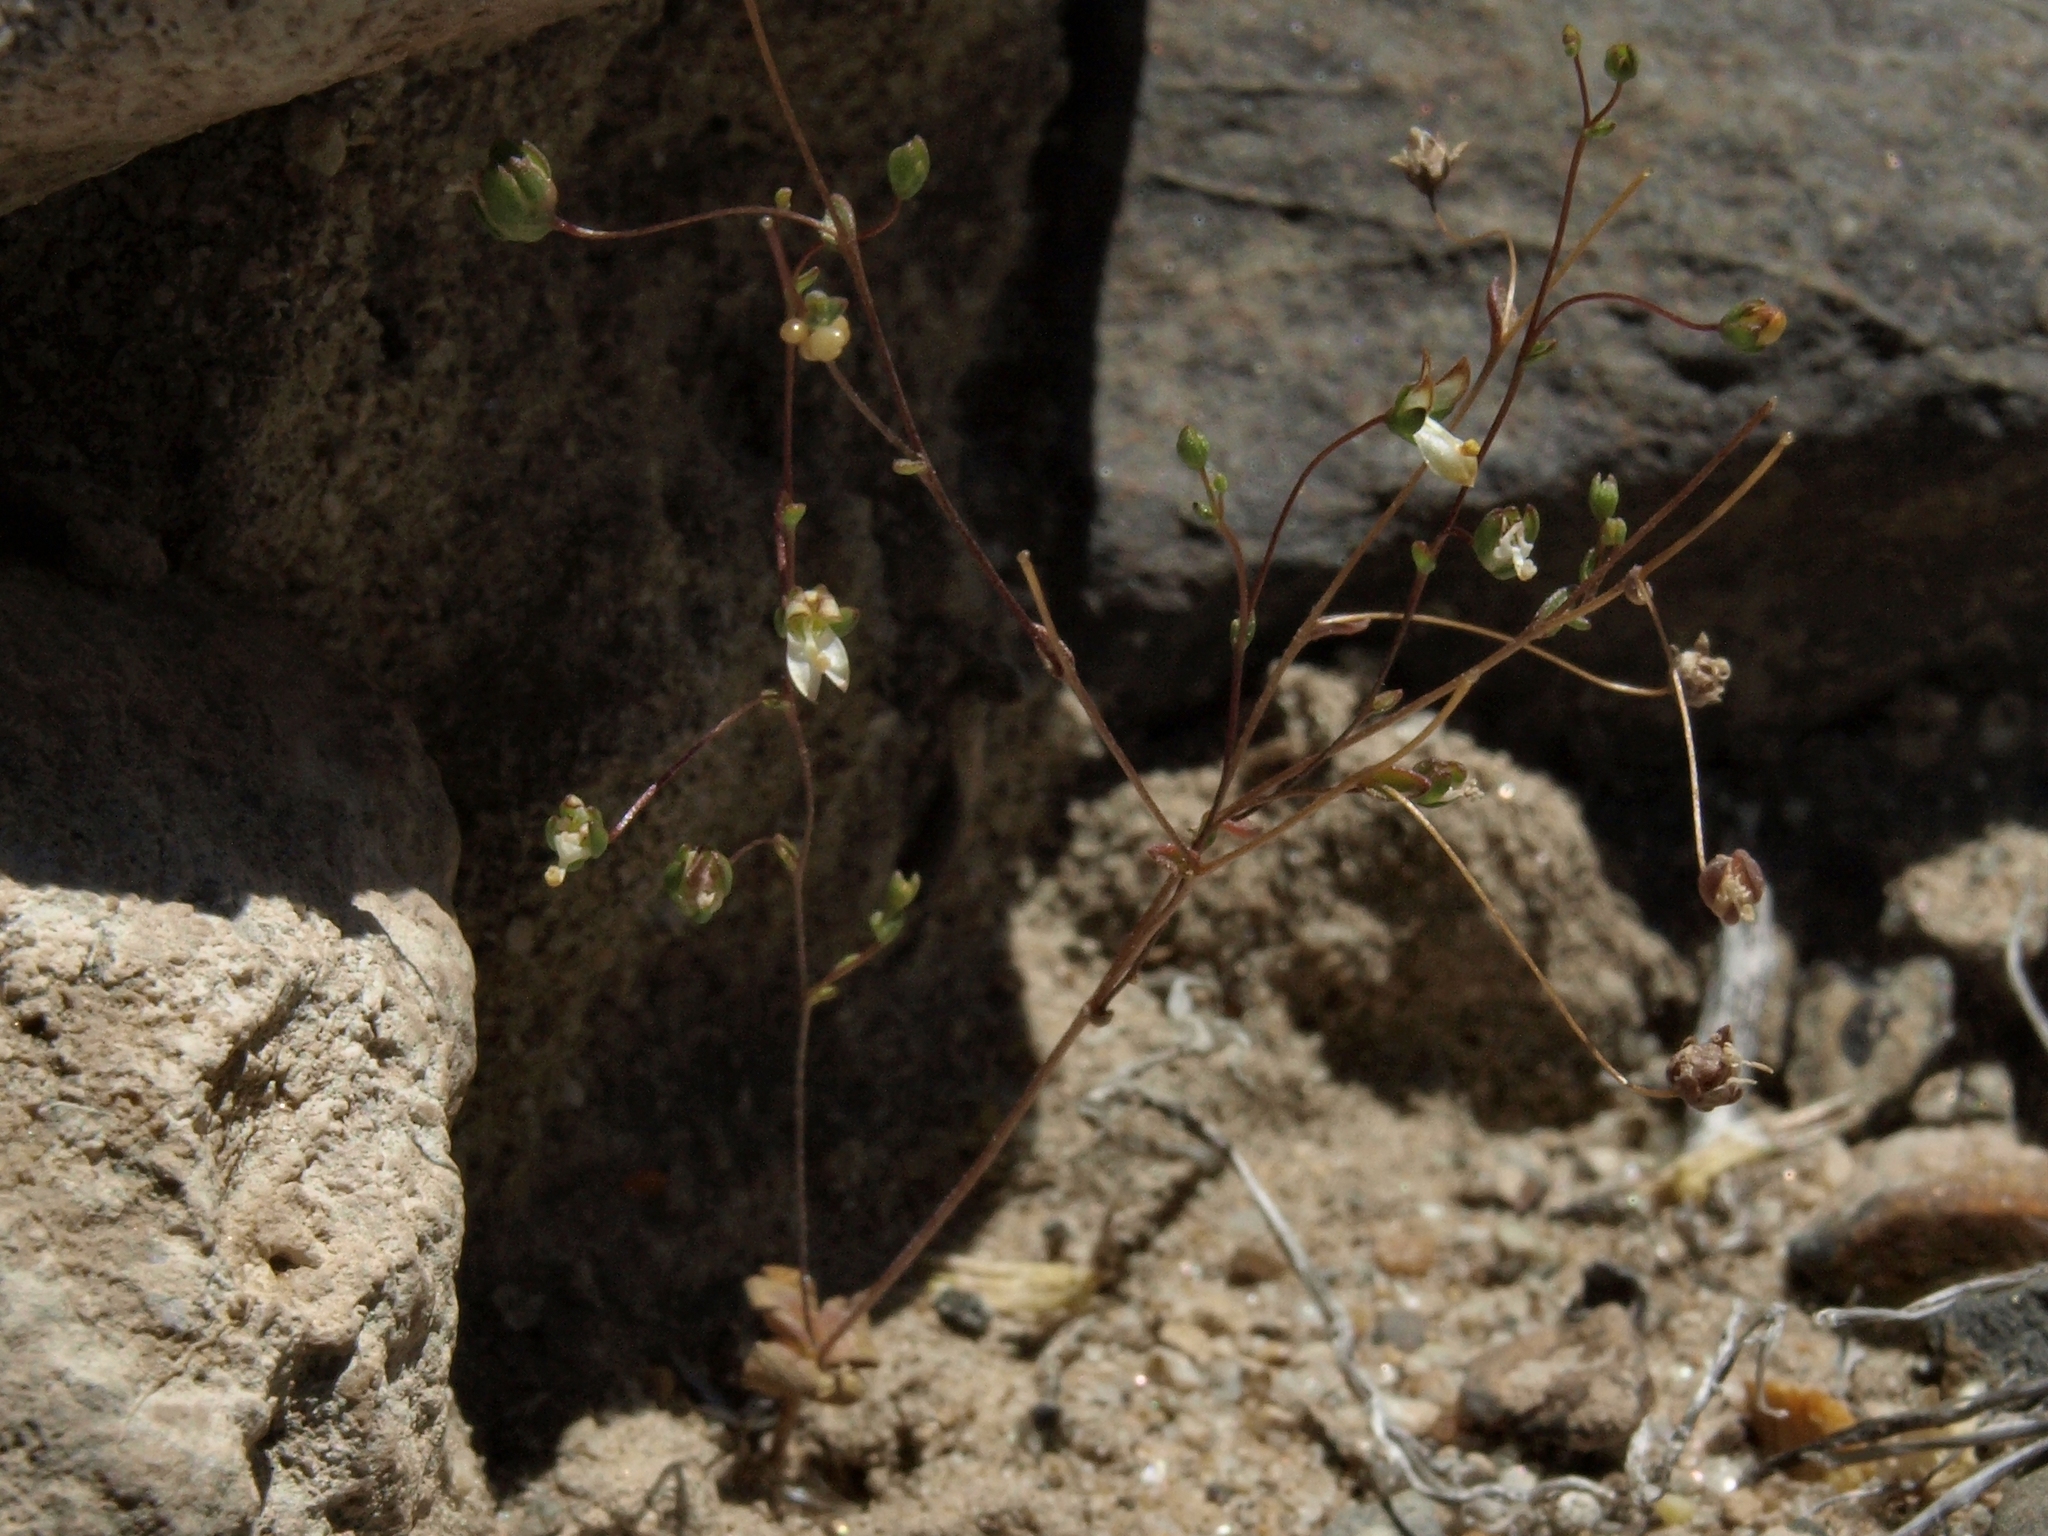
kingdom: Plantae
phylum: Tracheophyta
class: Magnoliopsida
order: Asterales
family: Campanulaceae
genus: Nemacladus
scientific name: Nemacladus morefieldii
